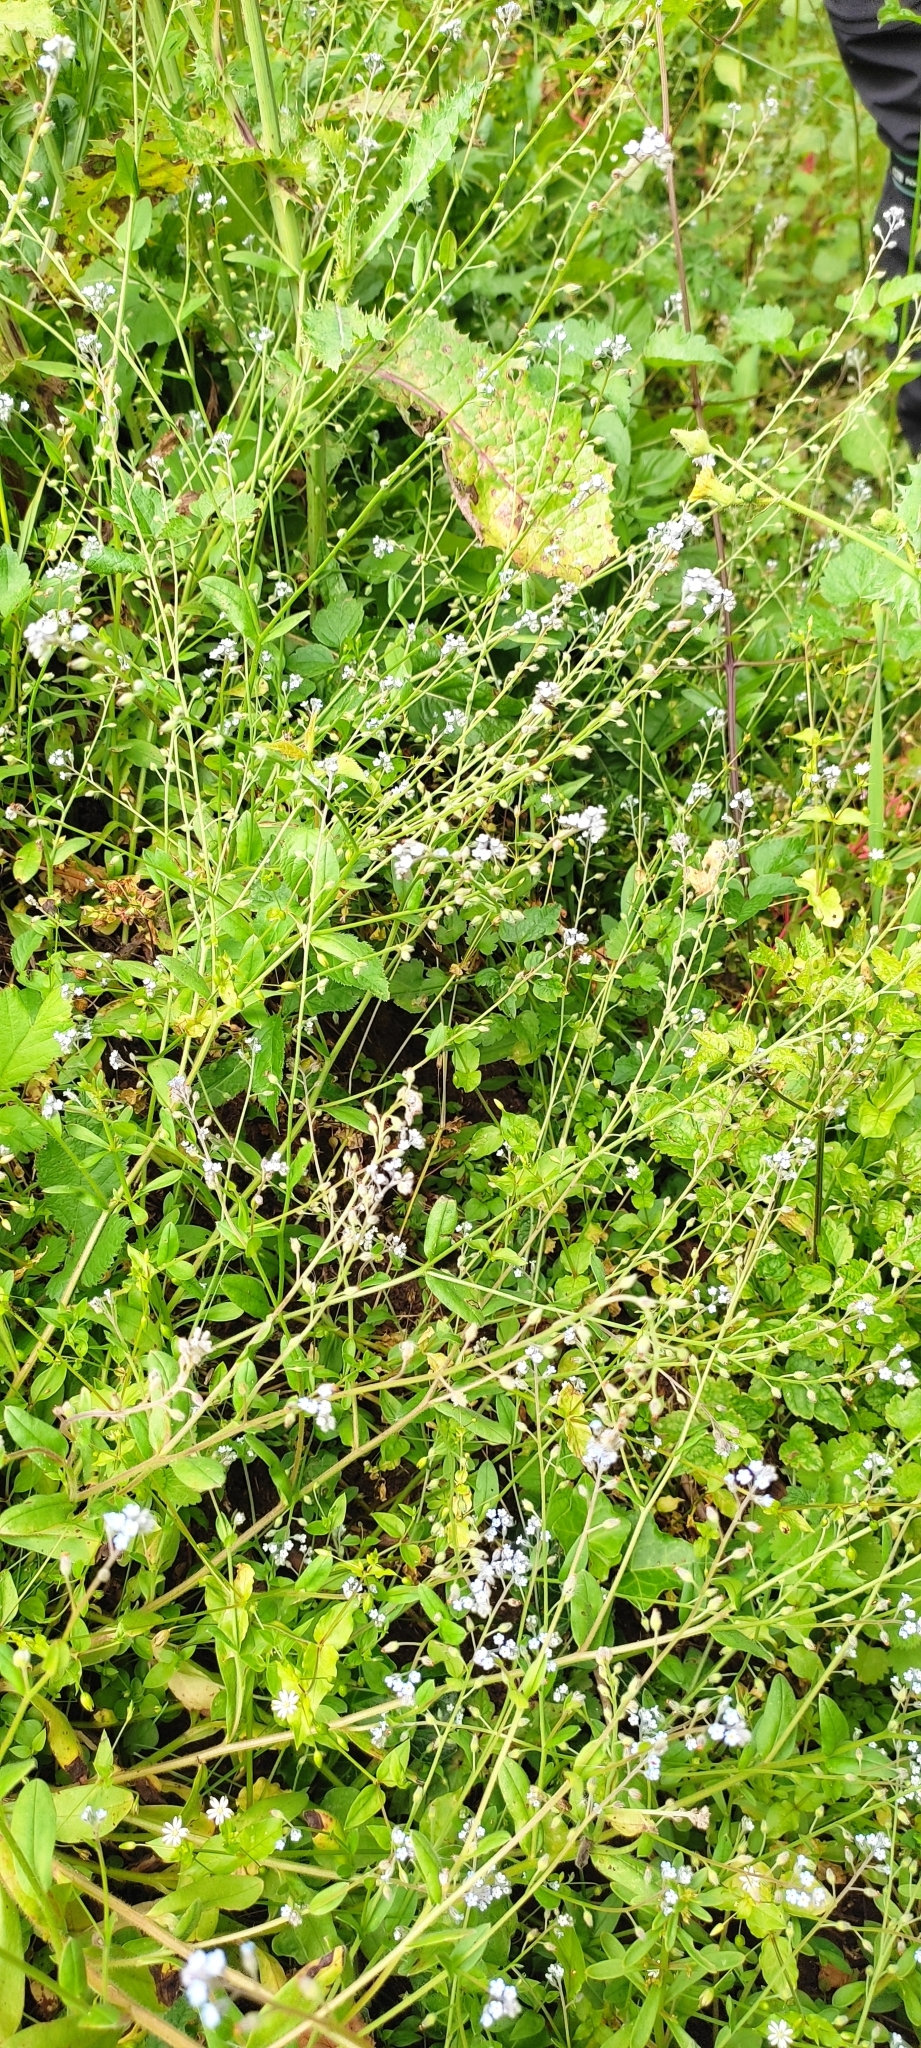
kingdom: Plantae
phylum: Tracheophyta
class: Magnoliopsida
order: Lamiales
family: Verbenaceae
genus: Verbena
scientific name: Verbena officinalis
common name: Vervain
